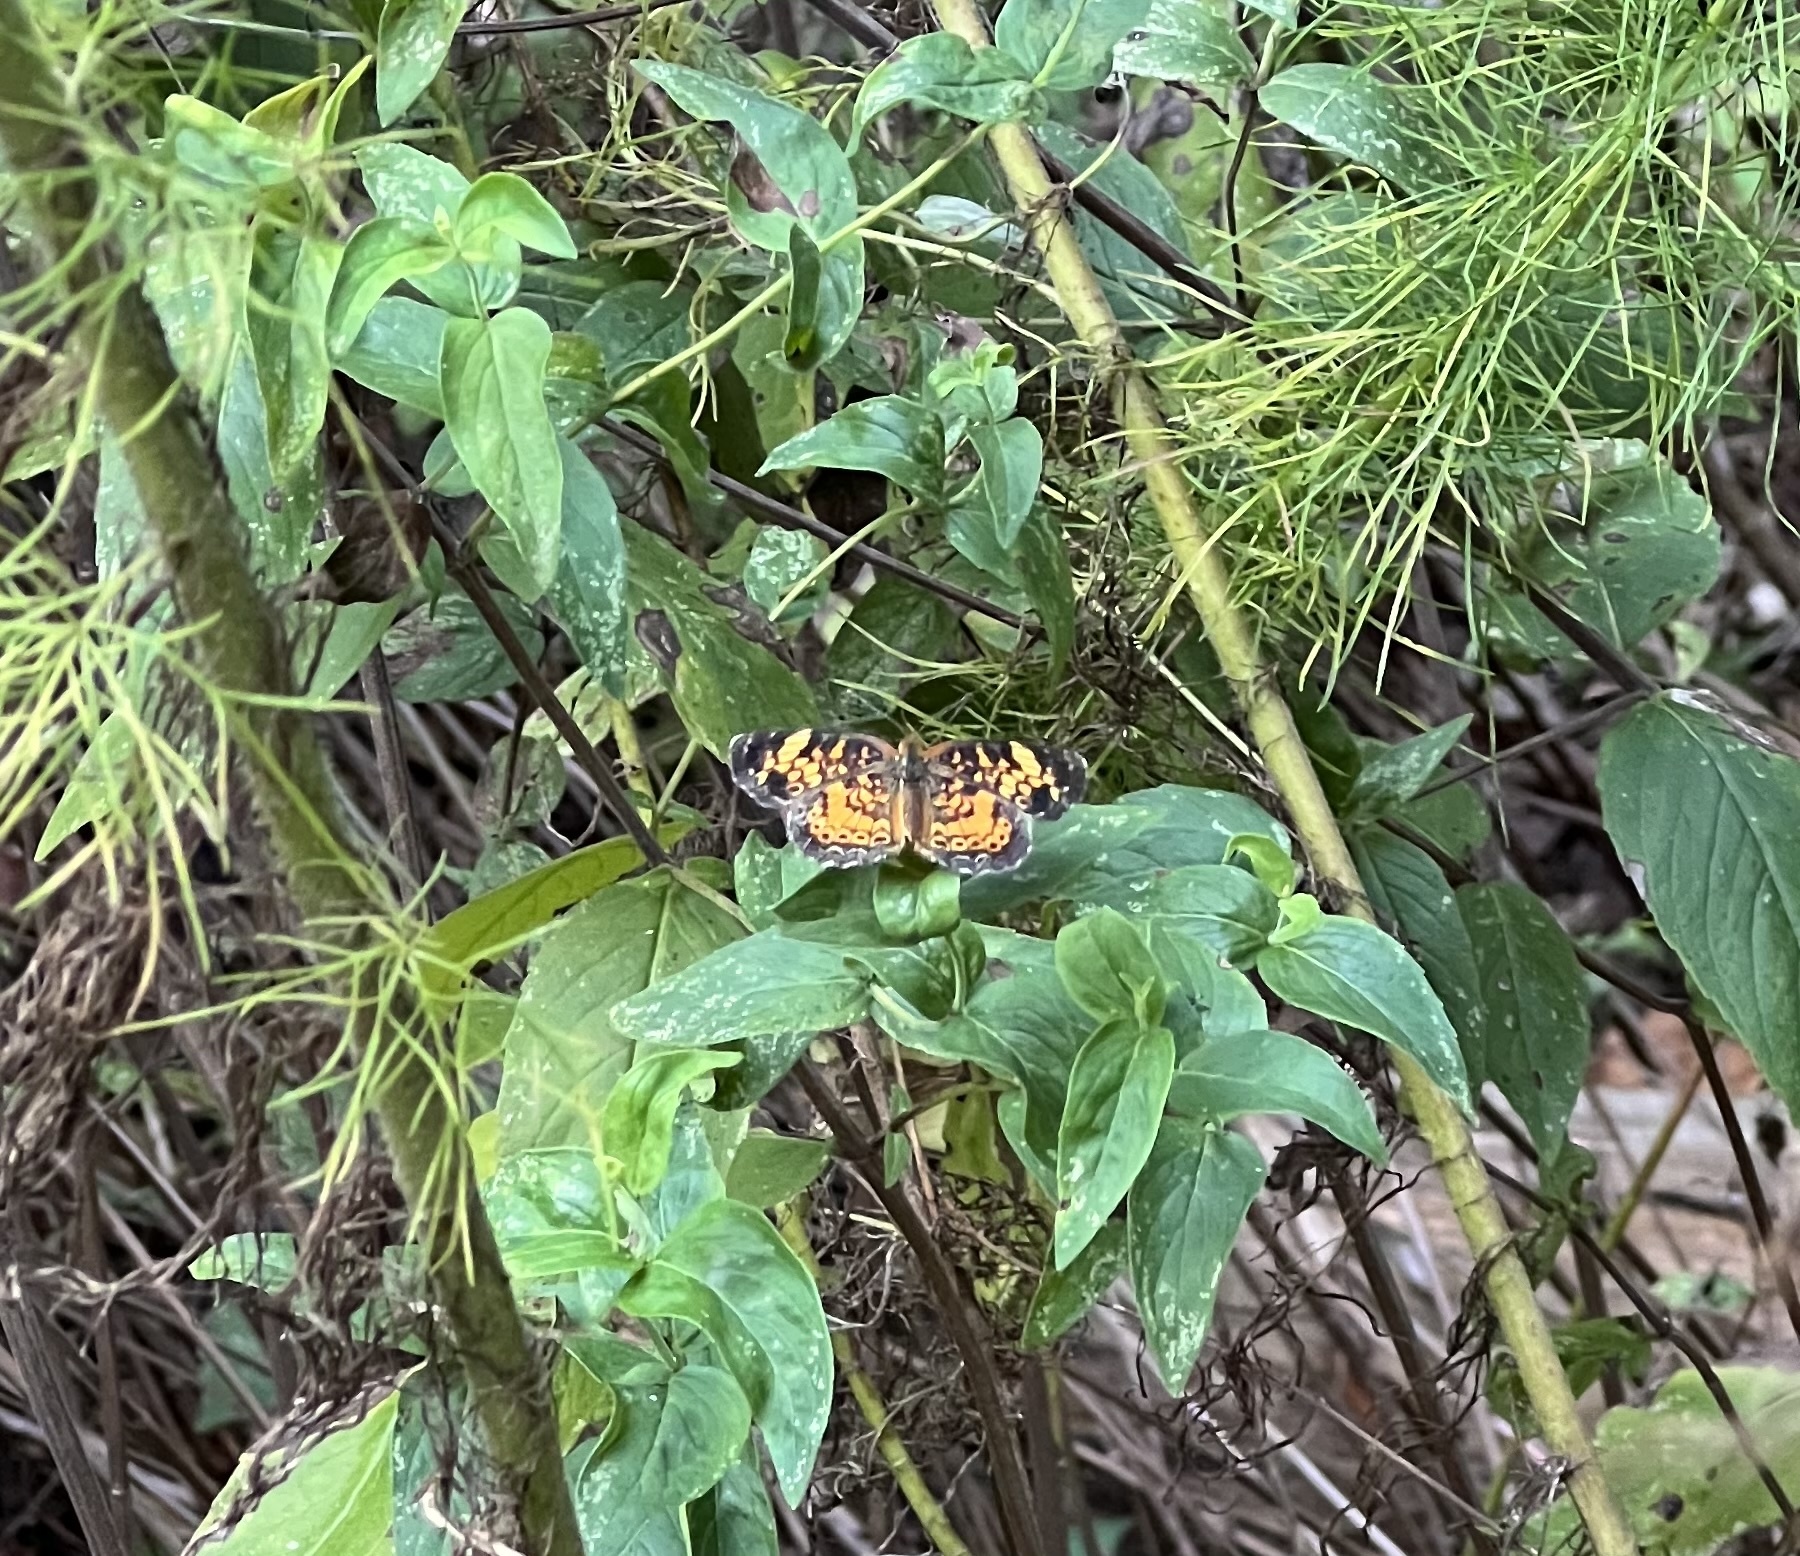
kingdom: Animalia
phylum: Arthropoda
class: Insecta
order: Lepidoptera
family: Nymphalidae
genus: Phyciodes
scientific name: Phyciodes tharos
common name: Pearl crescent
